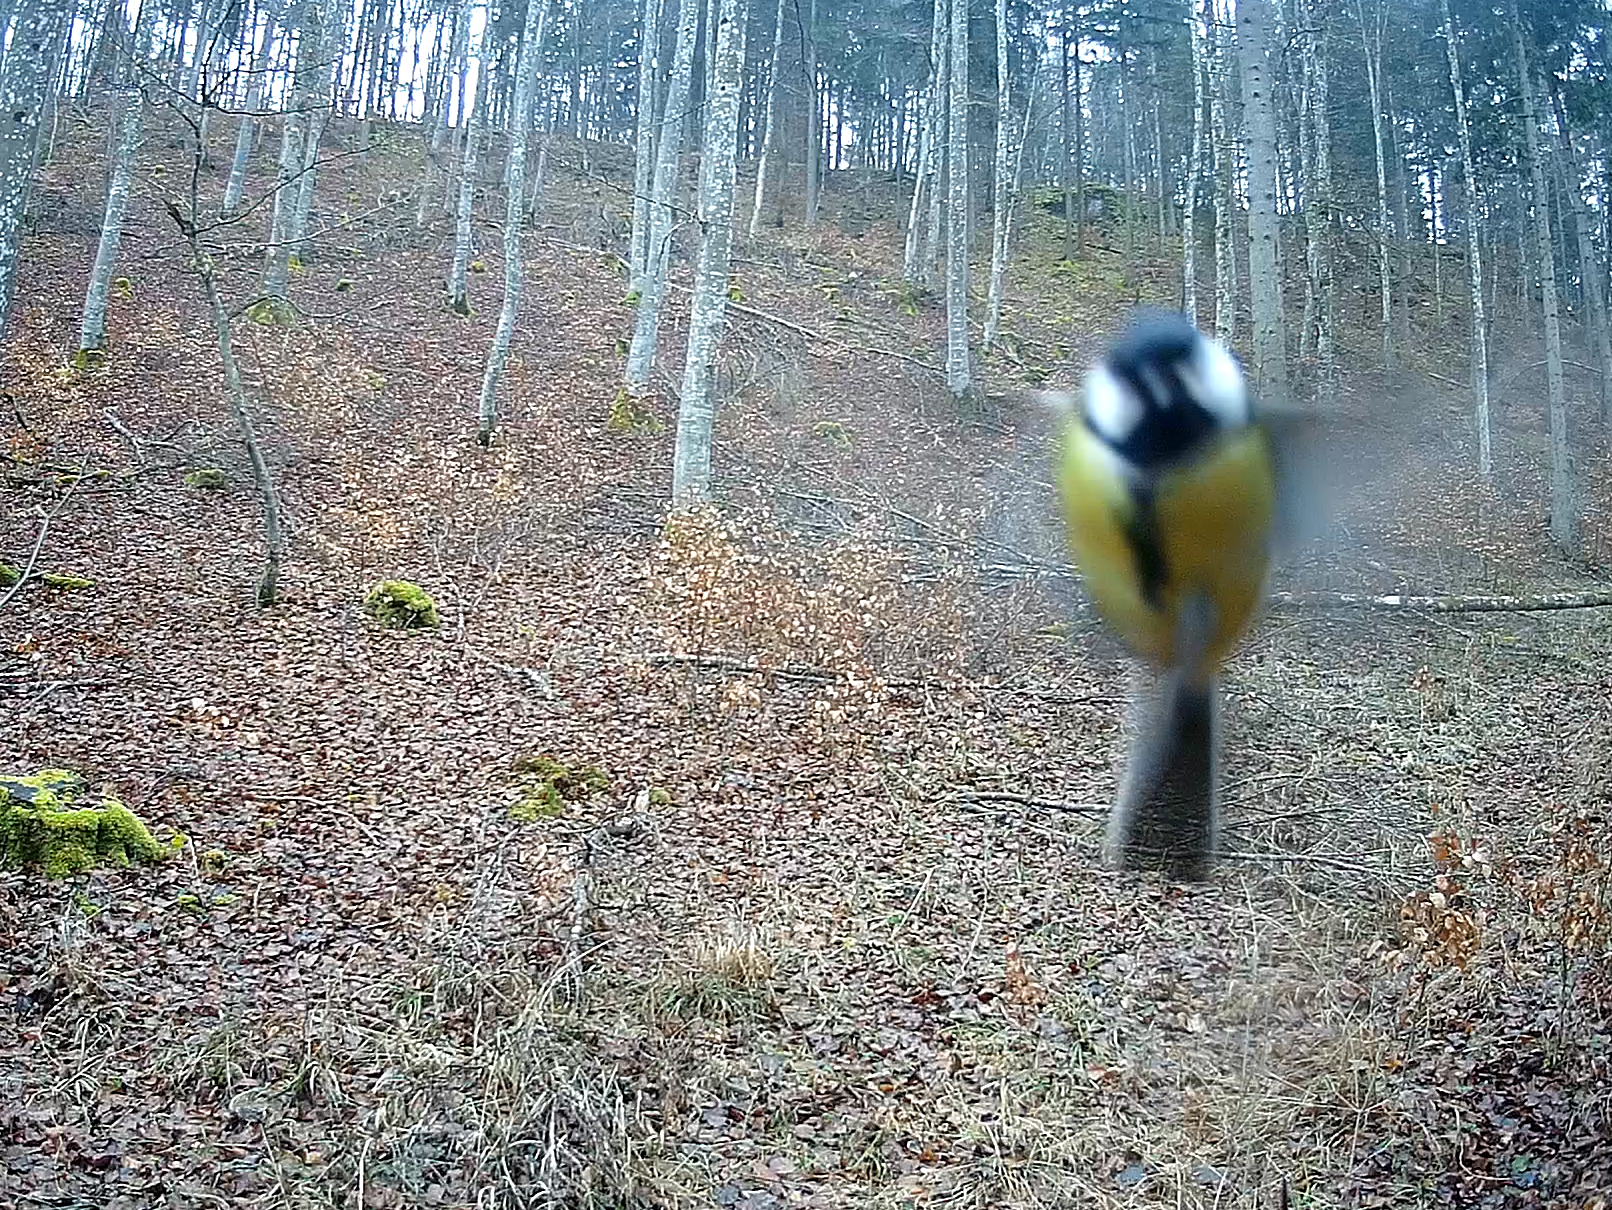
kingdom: Animalia
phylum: Chordata
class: Aves
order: Passeriformes
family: Paridae
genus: Parus
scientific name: Parus major
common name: Great tit
